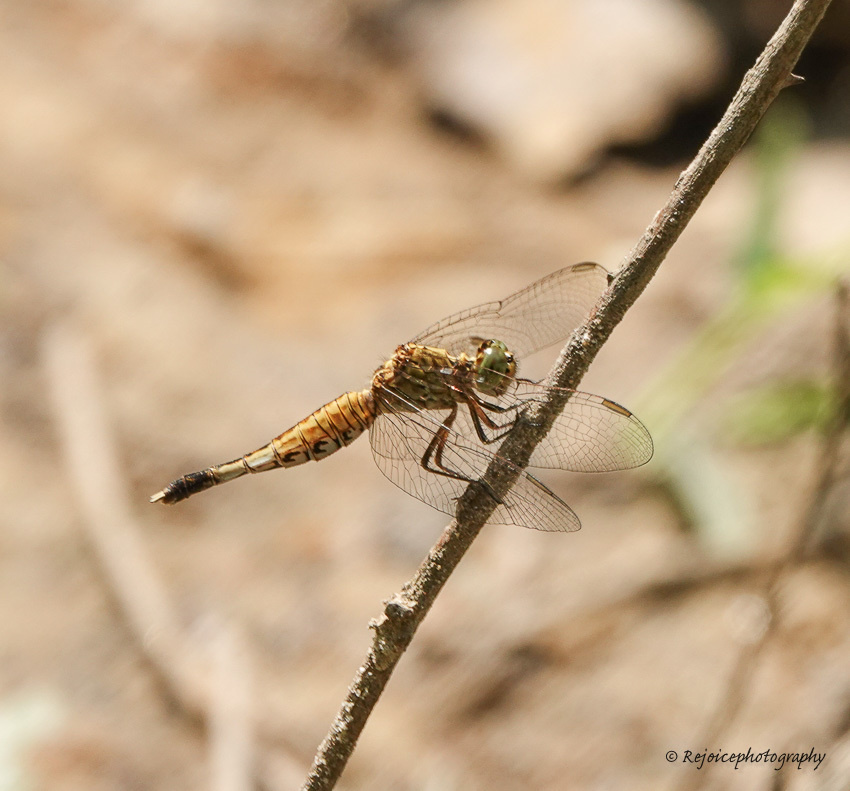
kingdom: Animalia
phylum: Arthropoda
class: Insecta
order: Odonata
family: Libellulidae
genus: Acisoma
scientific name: Acisoma panorpoides
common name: Asian pintail
